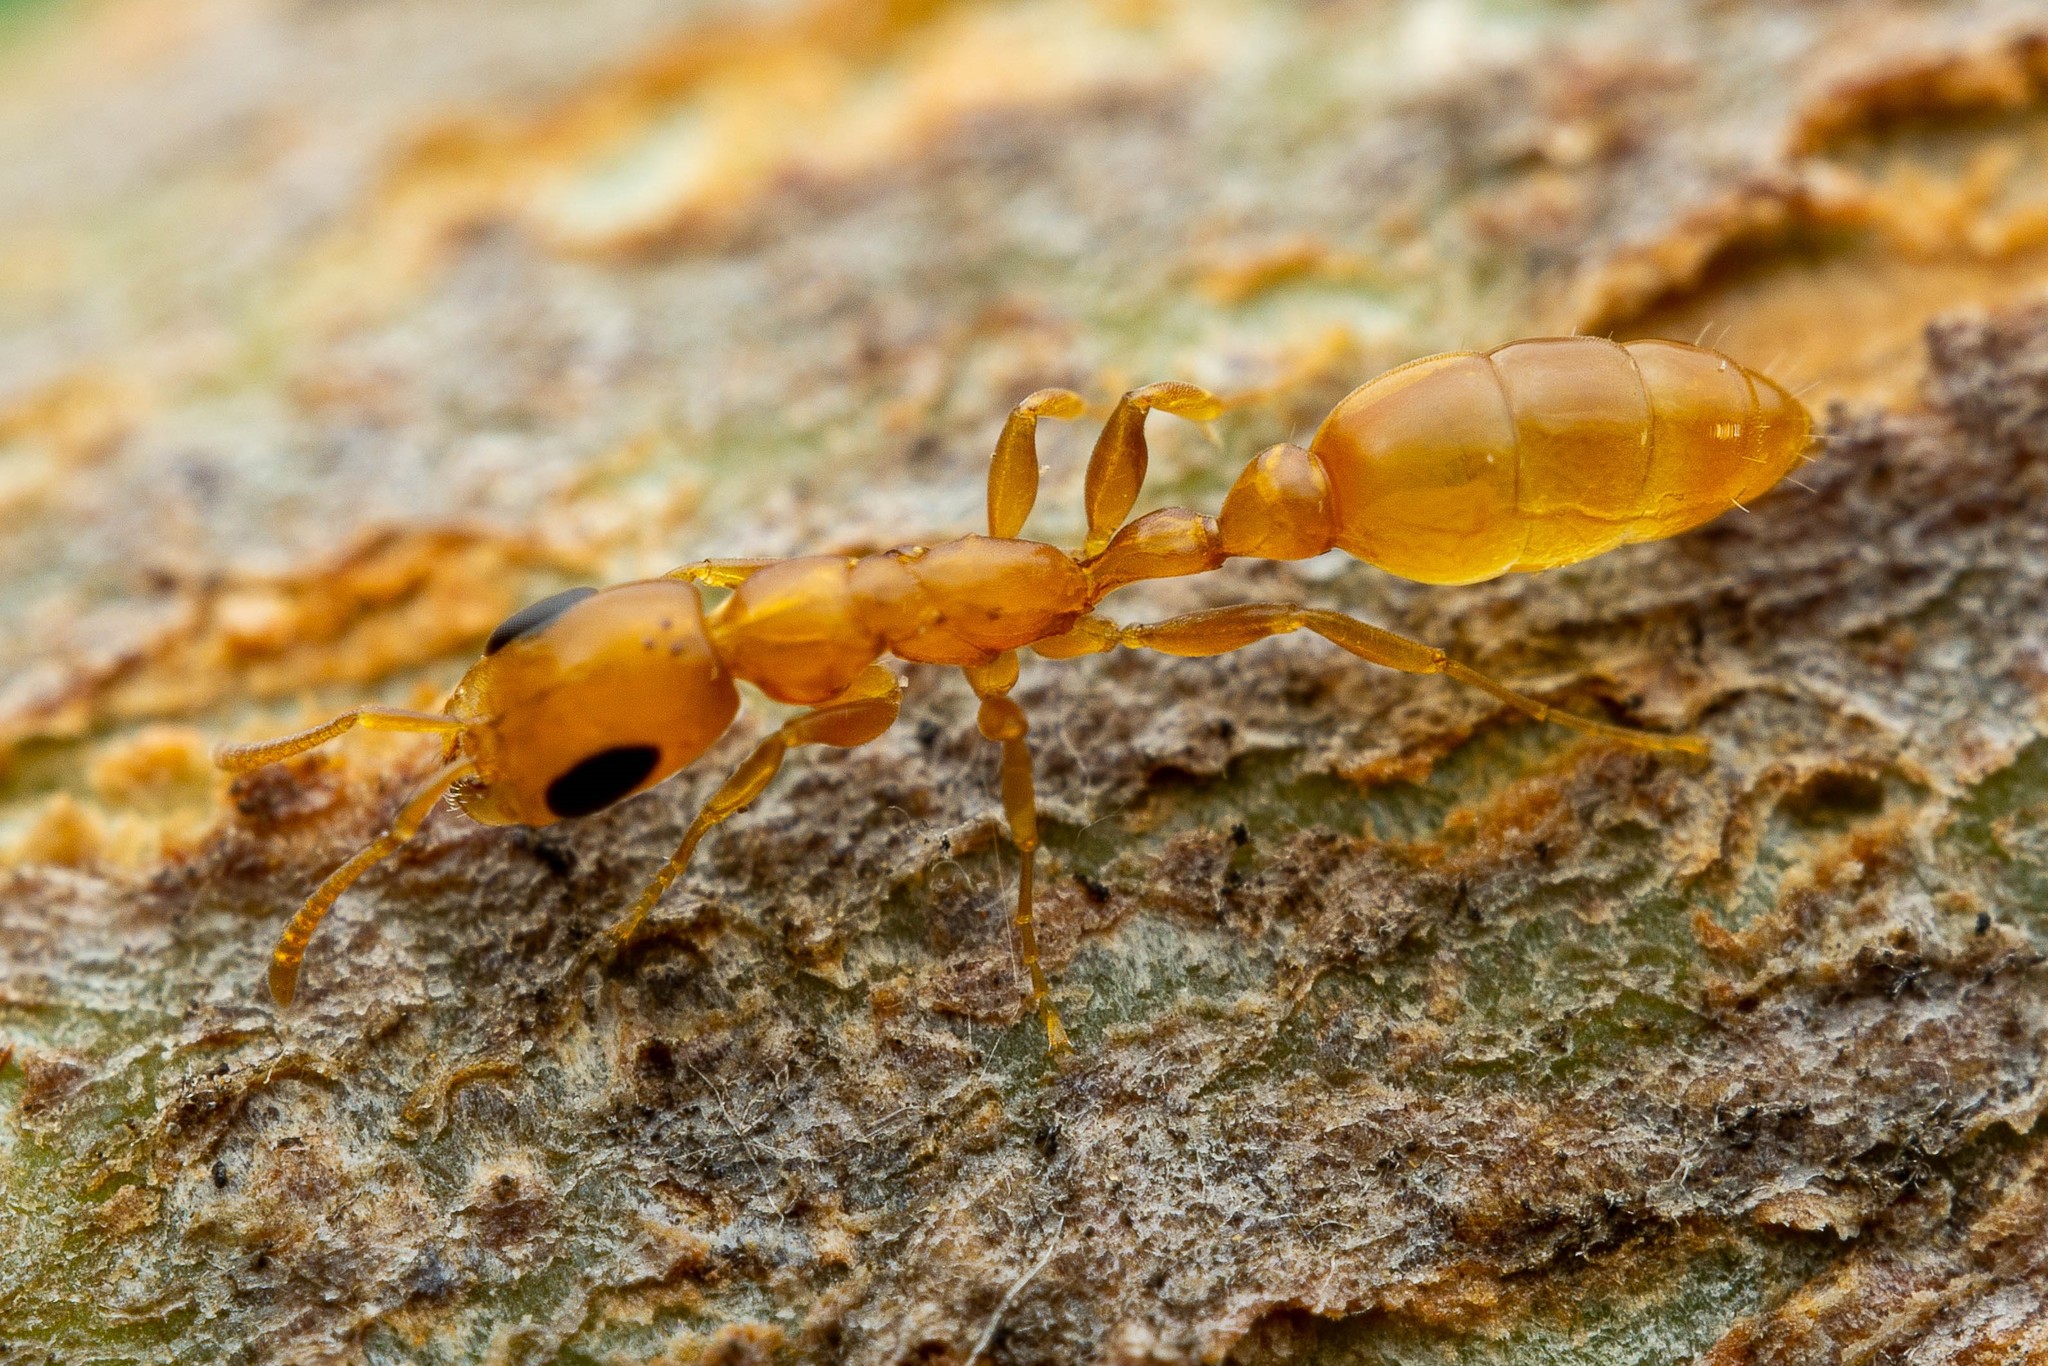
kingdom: Animalia
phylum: Arthropoda
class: Insecta
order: Hymenoptera
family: Formicidae
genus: Pseudomyrmex
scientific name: Pseudomyrmex pallidus
